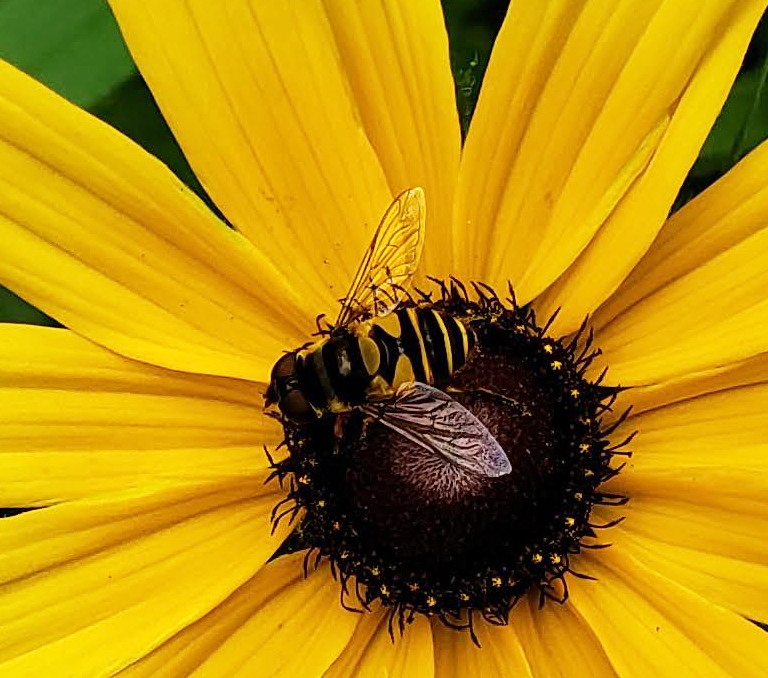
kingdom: Animalia
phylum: Arthropoda
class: Insecta
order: Diptera
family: Syrphidae
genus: Eristalis
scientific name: Eristalis transversa
